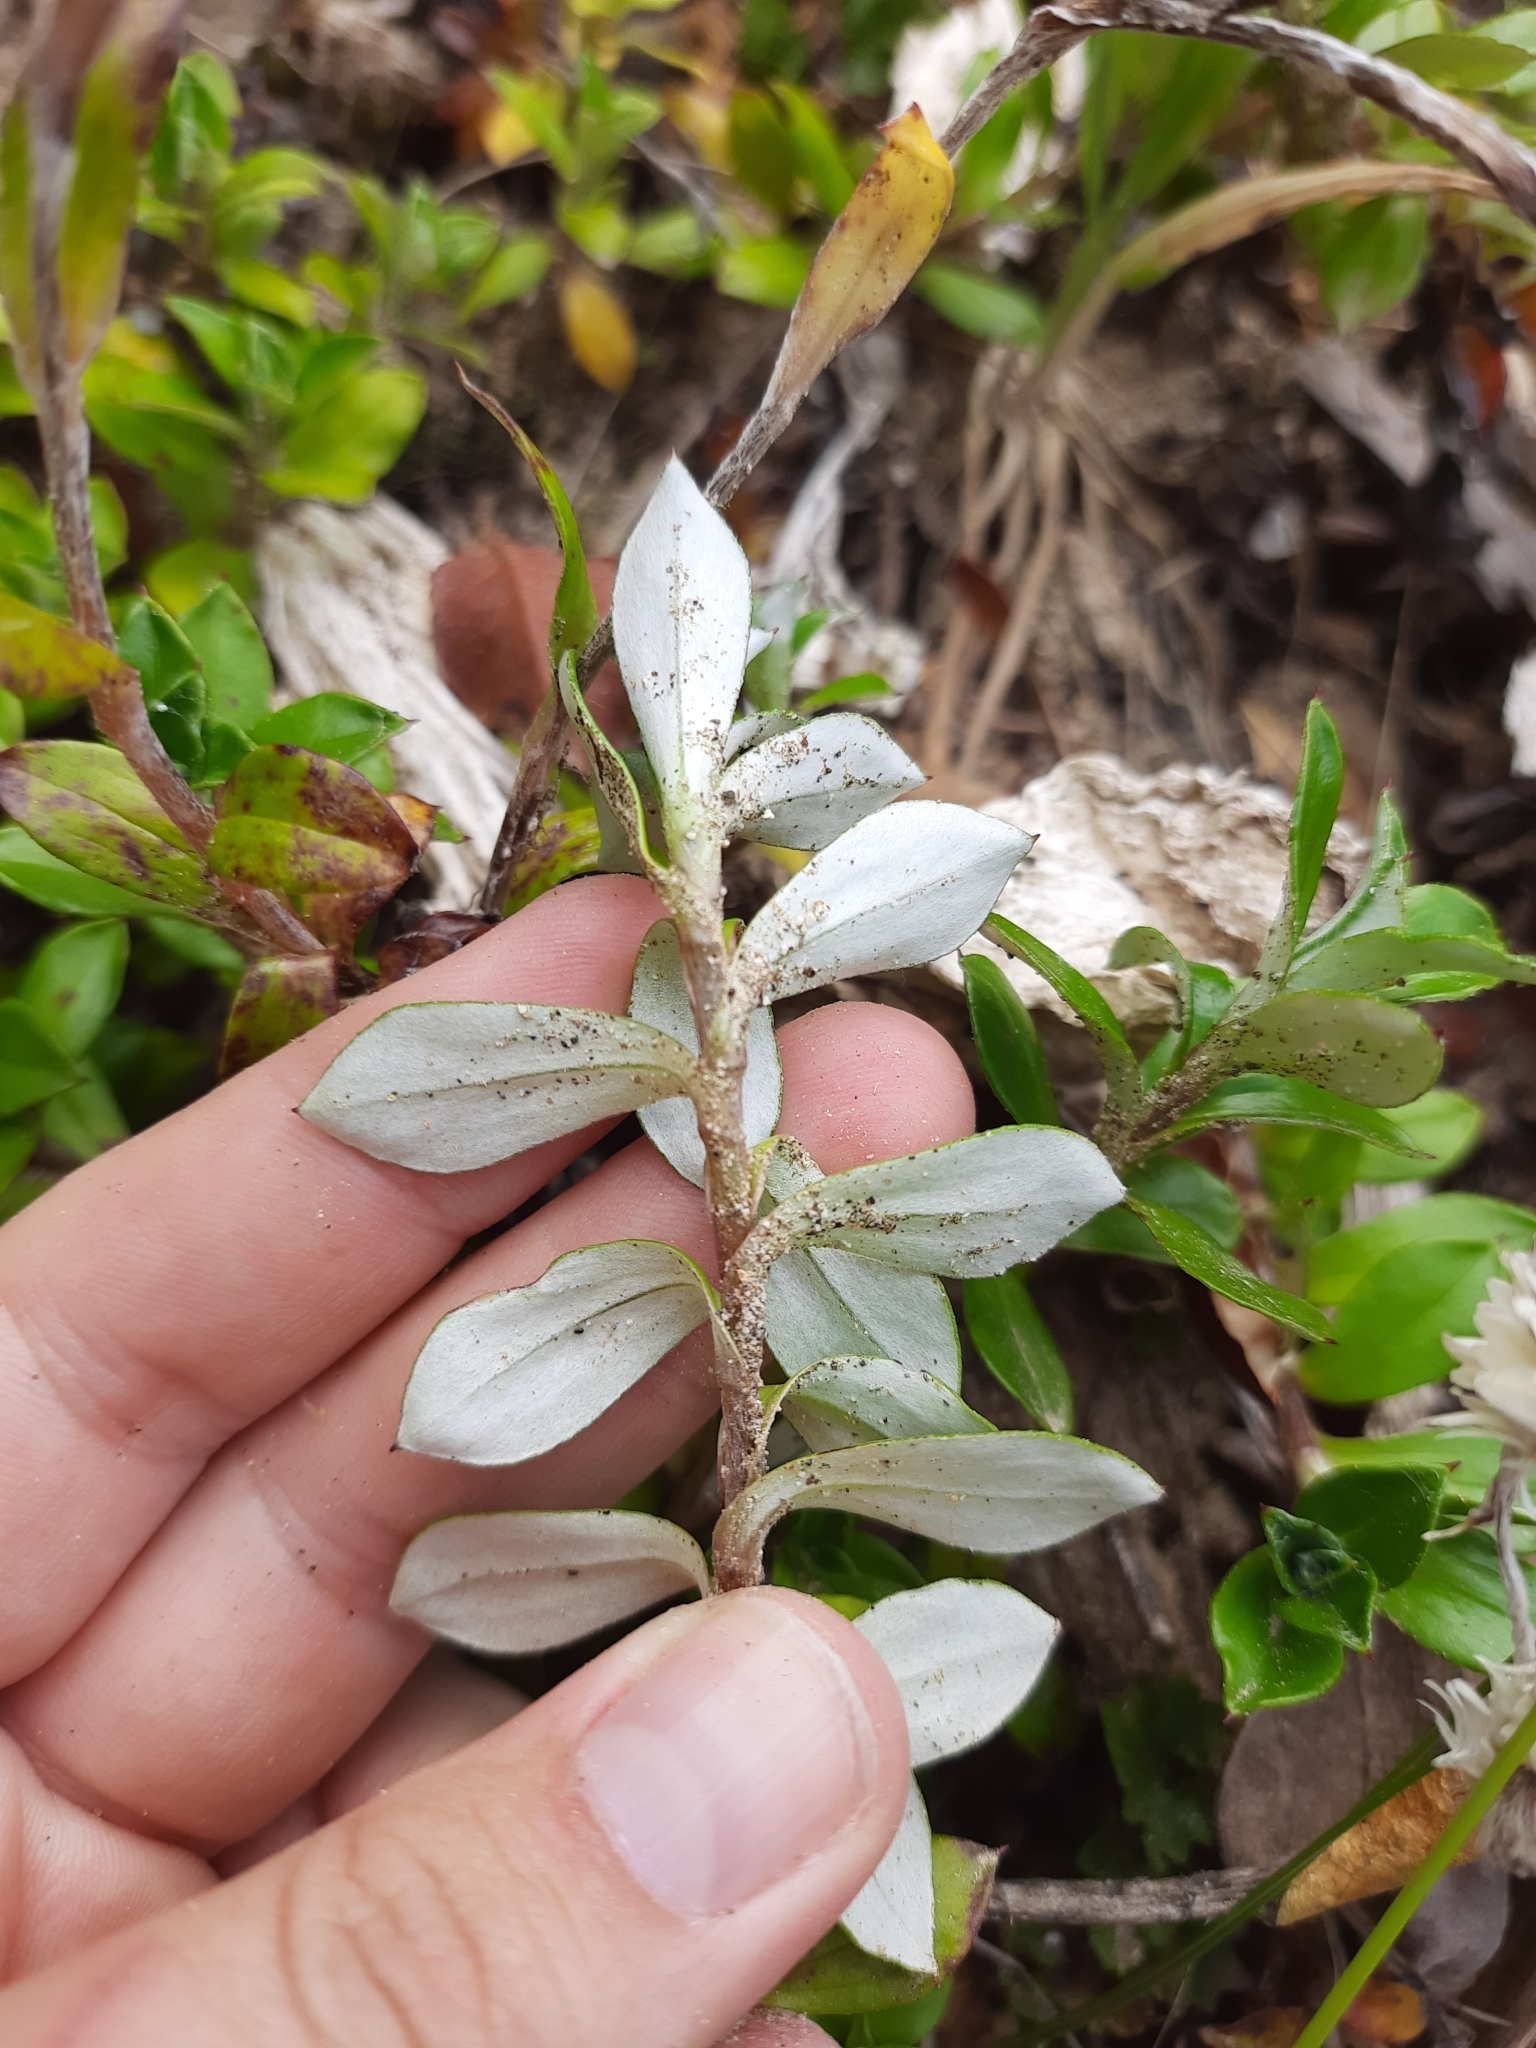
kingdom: Plantae
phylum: Tracheophyta
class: Magnoliopsida
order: Asterales
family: Asteraceae
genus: Anaphalioides
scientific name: Anaphalioides hookeri
